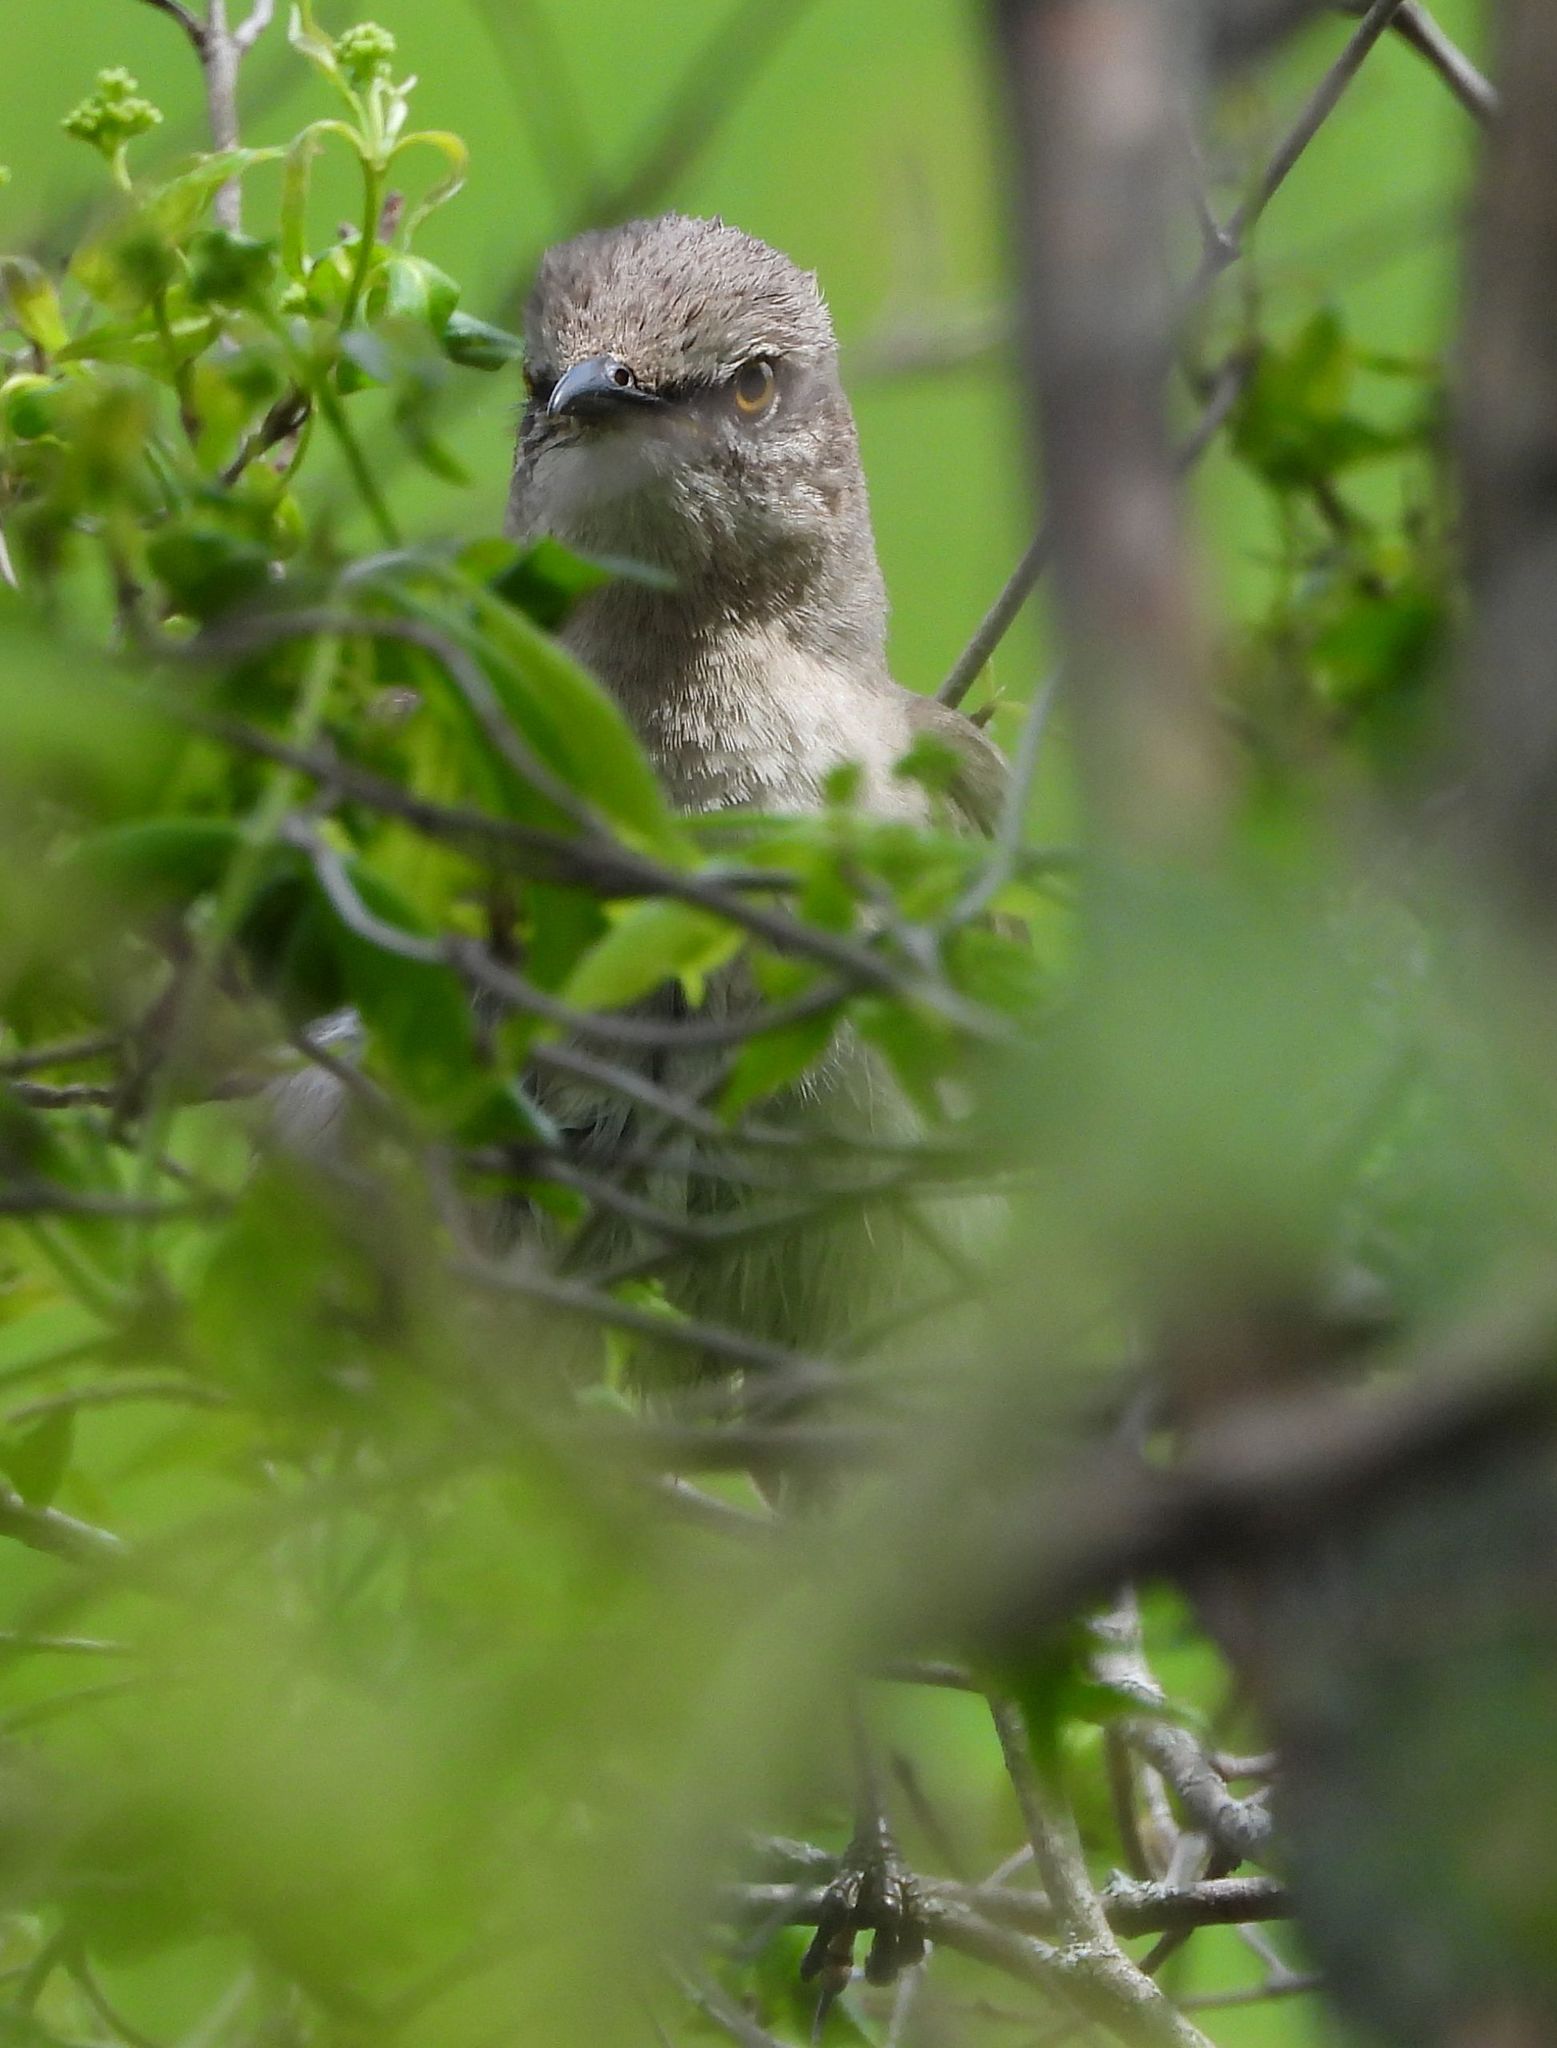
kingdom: Animalia
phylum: Chordata
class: Aves
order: Passeriformes
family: Mimidae
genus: Mimus
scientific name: Mimus polyglottos
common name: Northern mockingbird
